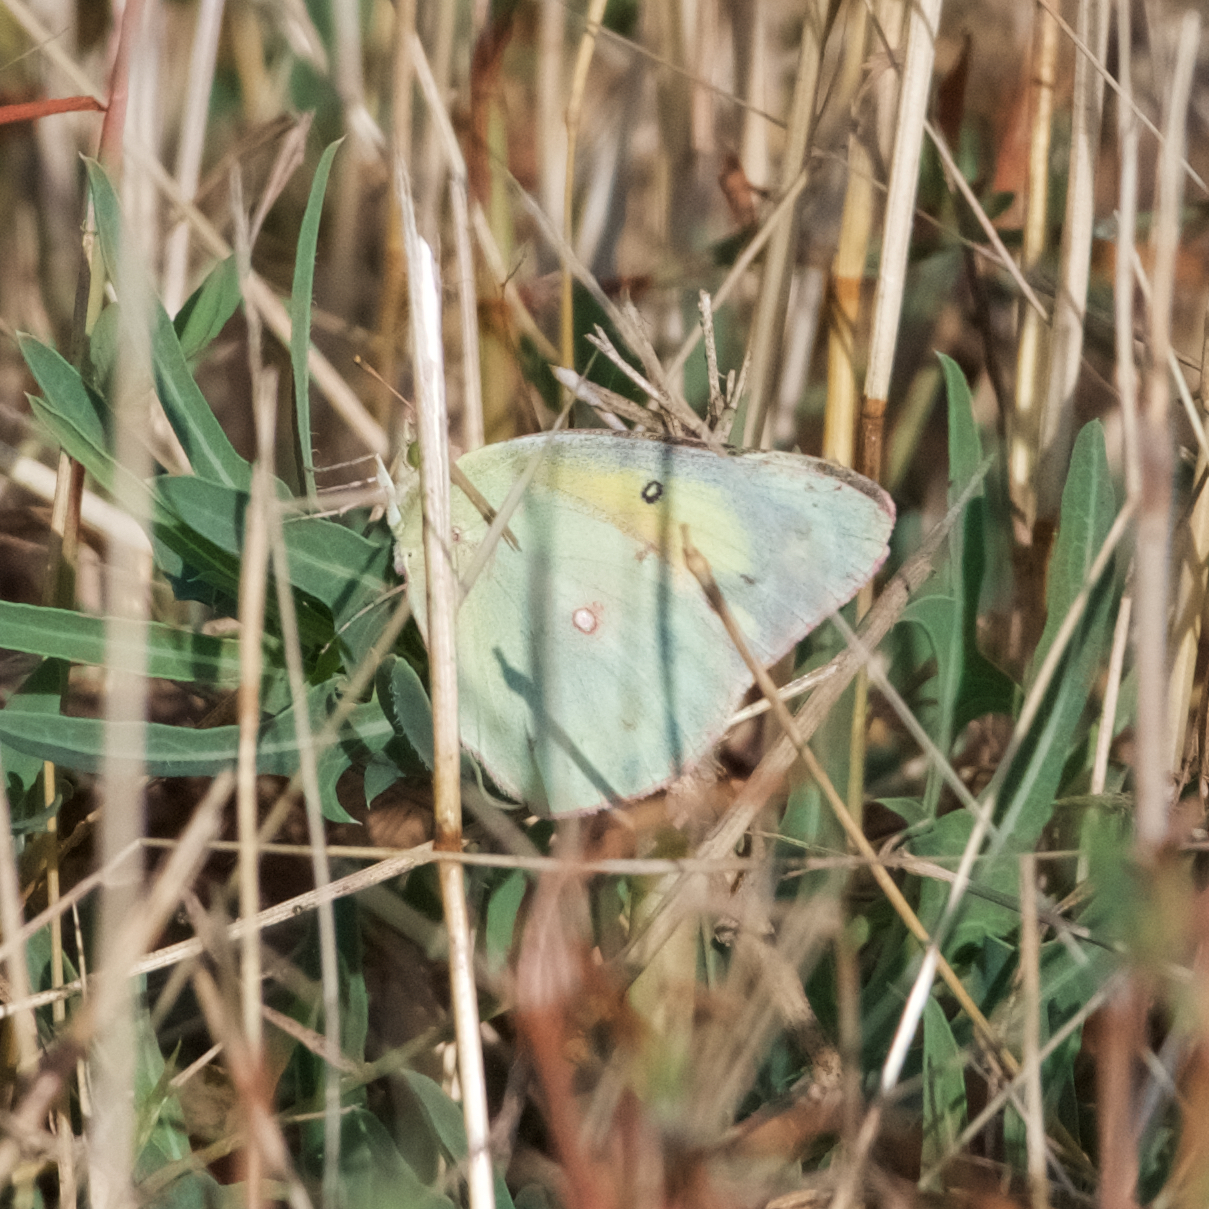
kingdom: Animalia
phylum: Arthropoda
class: Insecta
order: Lepidoptera
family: Pieridae
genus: Colias
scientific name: Colias eurytheme
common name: Alfalfa butterfly
